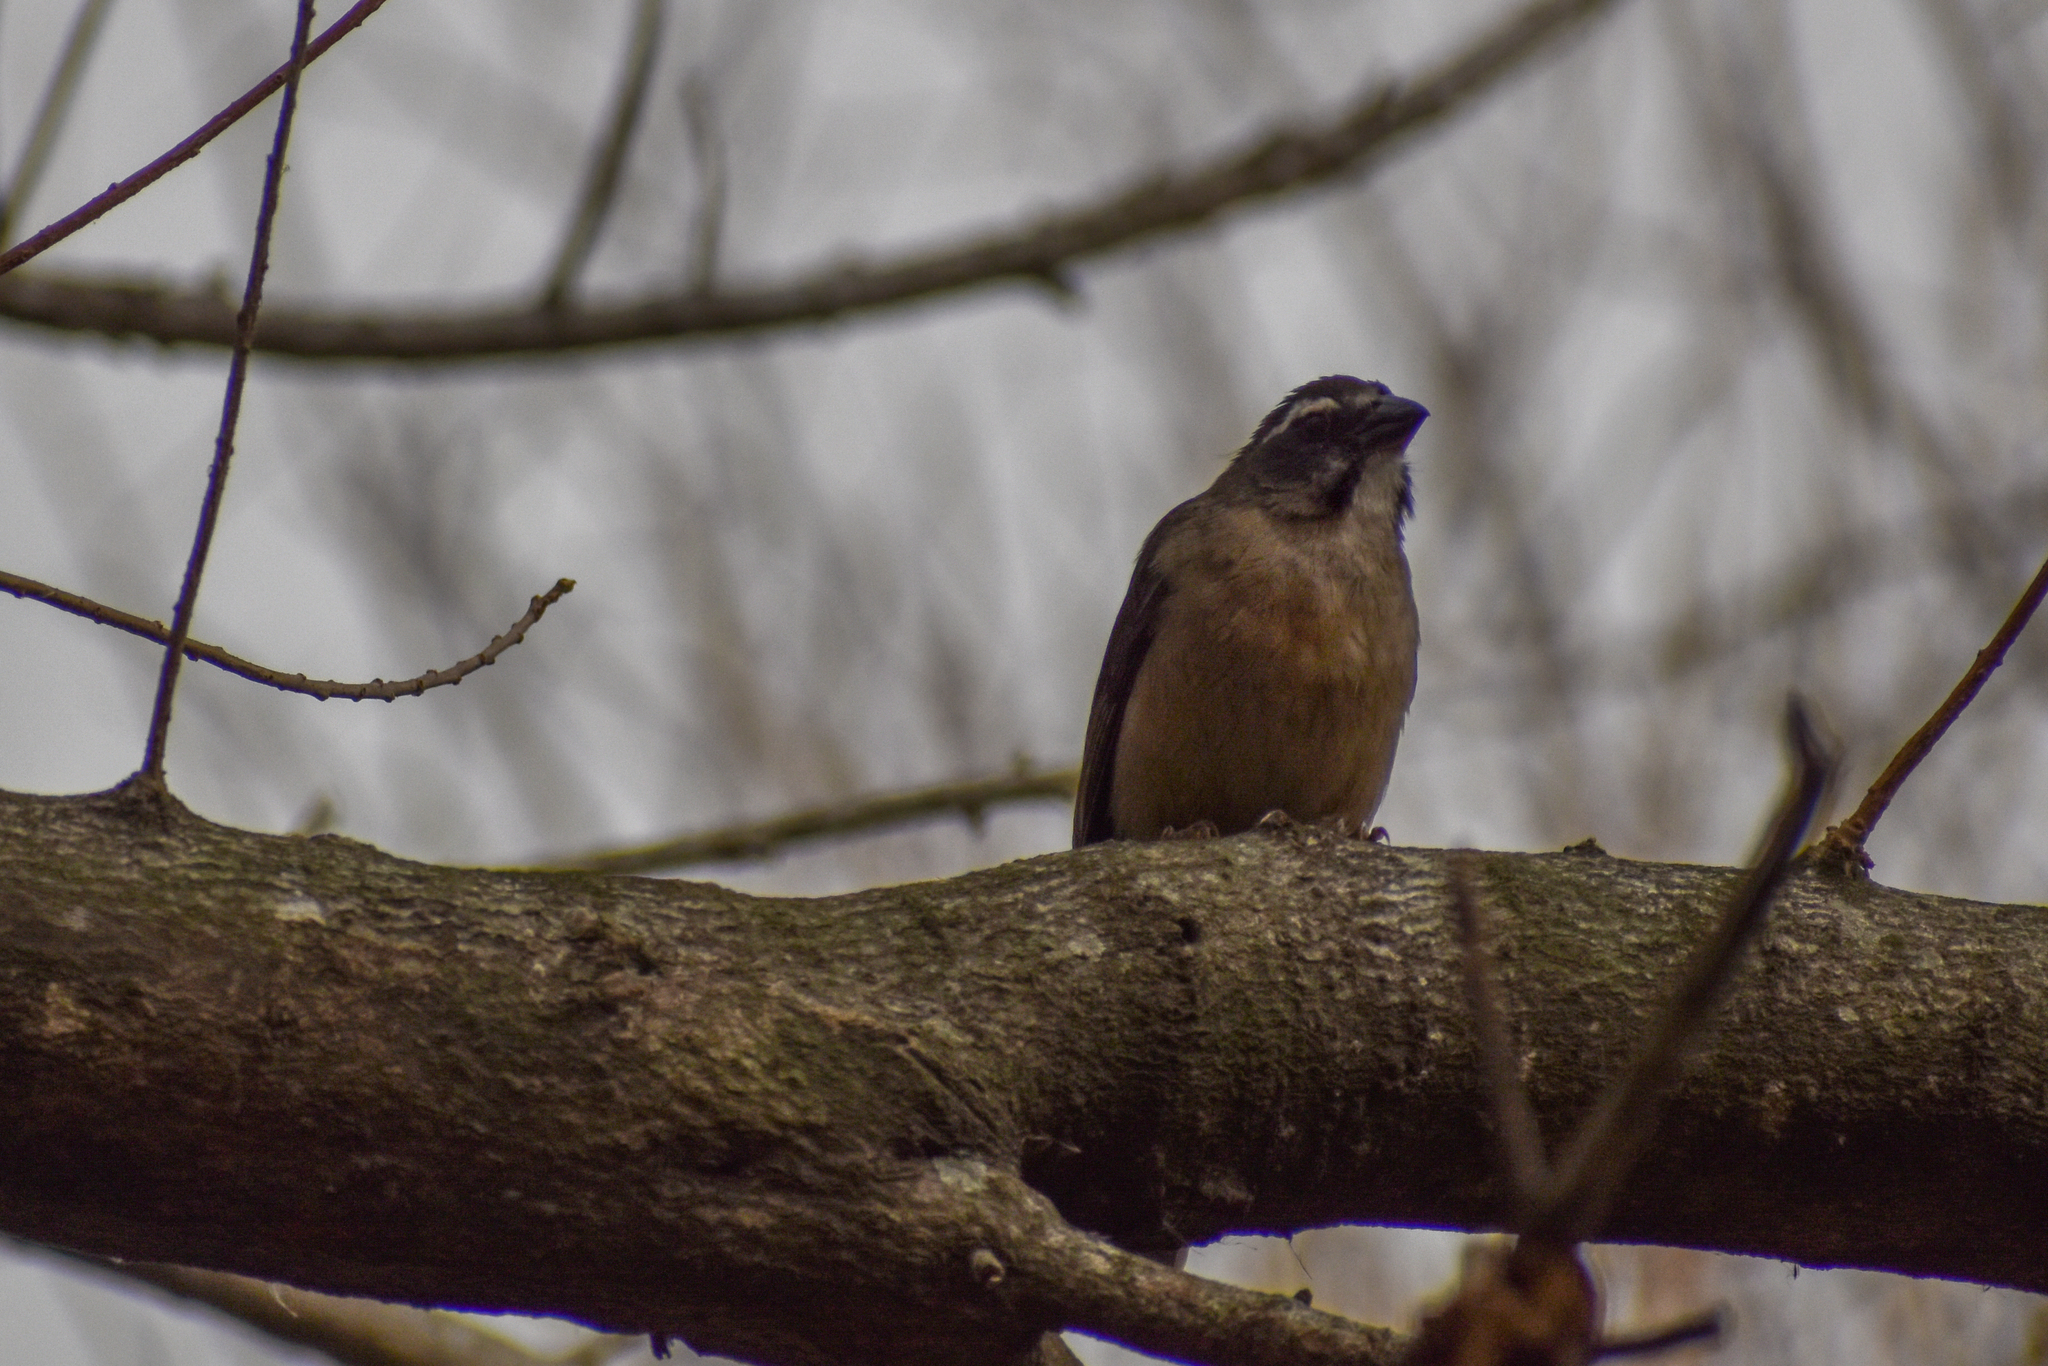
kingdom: Animalia
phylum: Chordata
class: Aves
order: Passeriformes
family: Thraupidae
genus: Saltator
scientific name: Saltator coerulescens
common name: Grayish saltator
